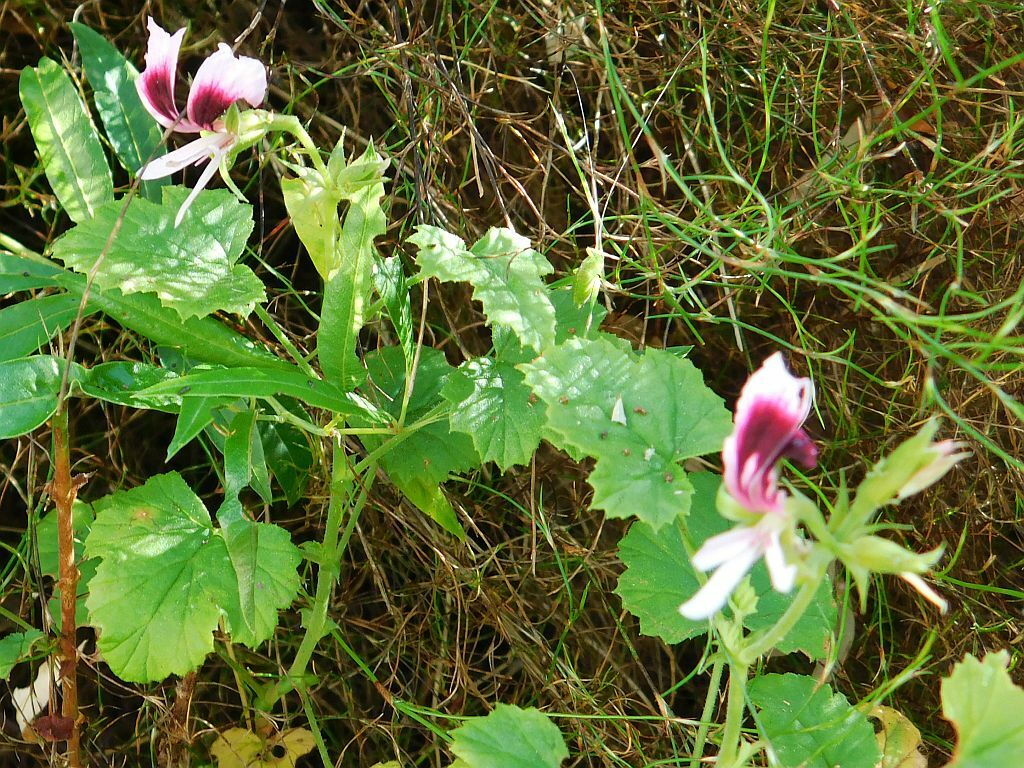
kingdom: Plantae
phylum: Tracheophyta
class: Magnoliopsida
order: Geraniales
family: Geraniaceae
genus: Pelargonium
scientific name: Pelargonium greytonense
